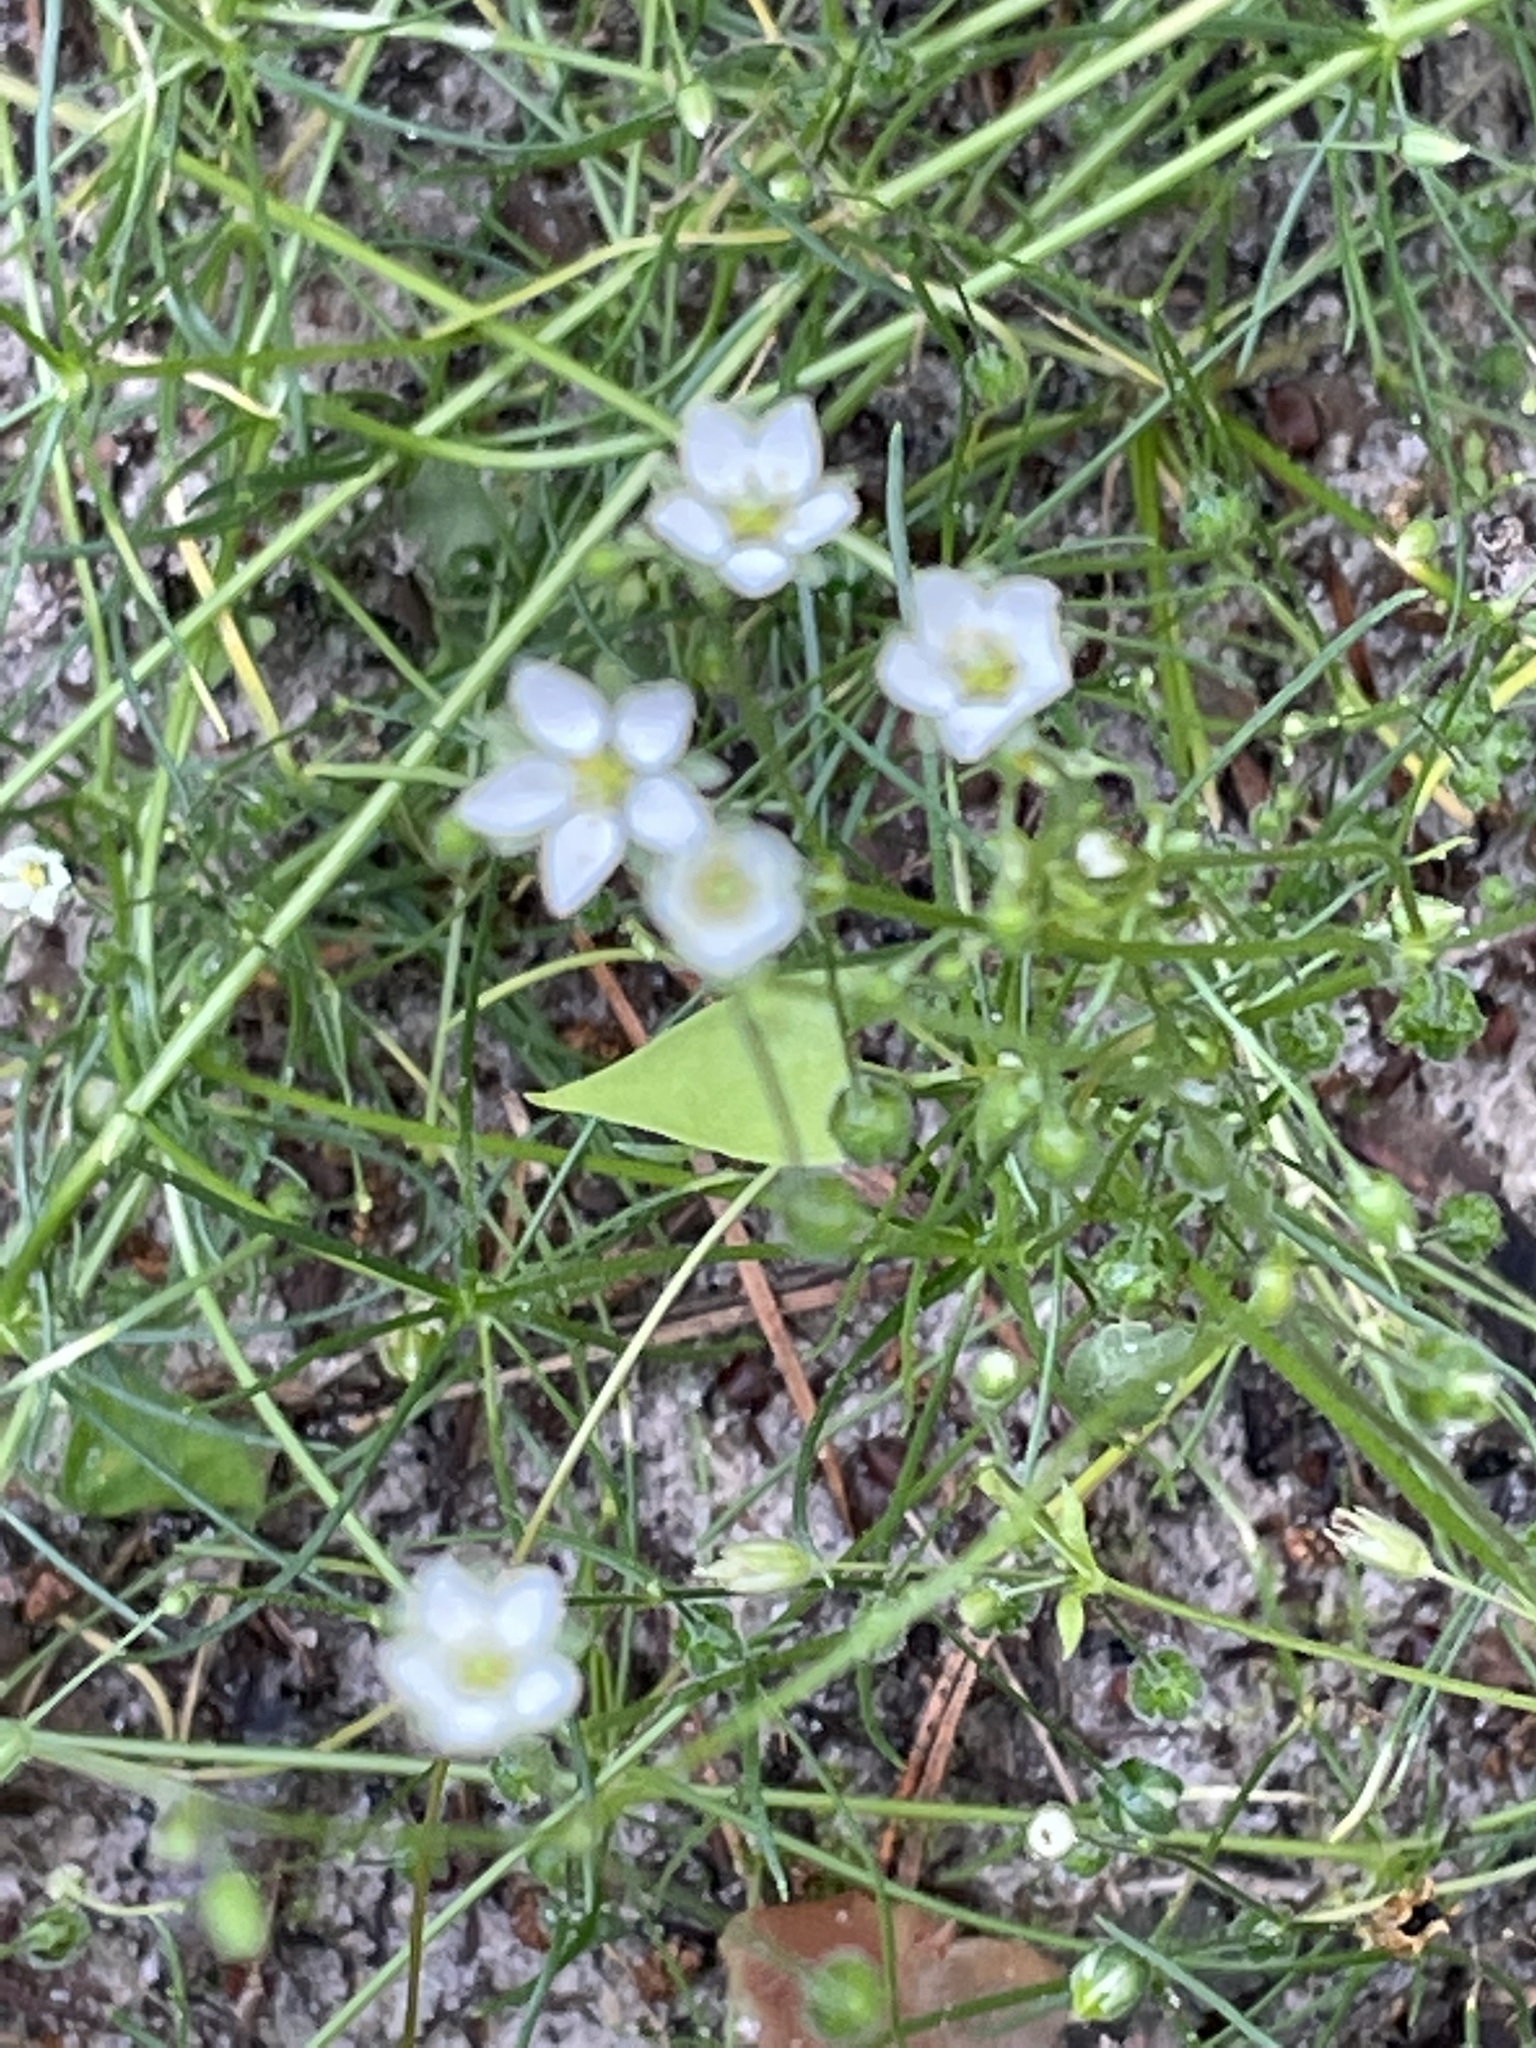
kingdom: Plantae
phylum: Tracheophyta
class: Magnoliopsida
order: Caryophyllales
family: Caryophyllaceae
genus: Spergula
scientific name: Spergula arvensis
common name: Corn spurrey
